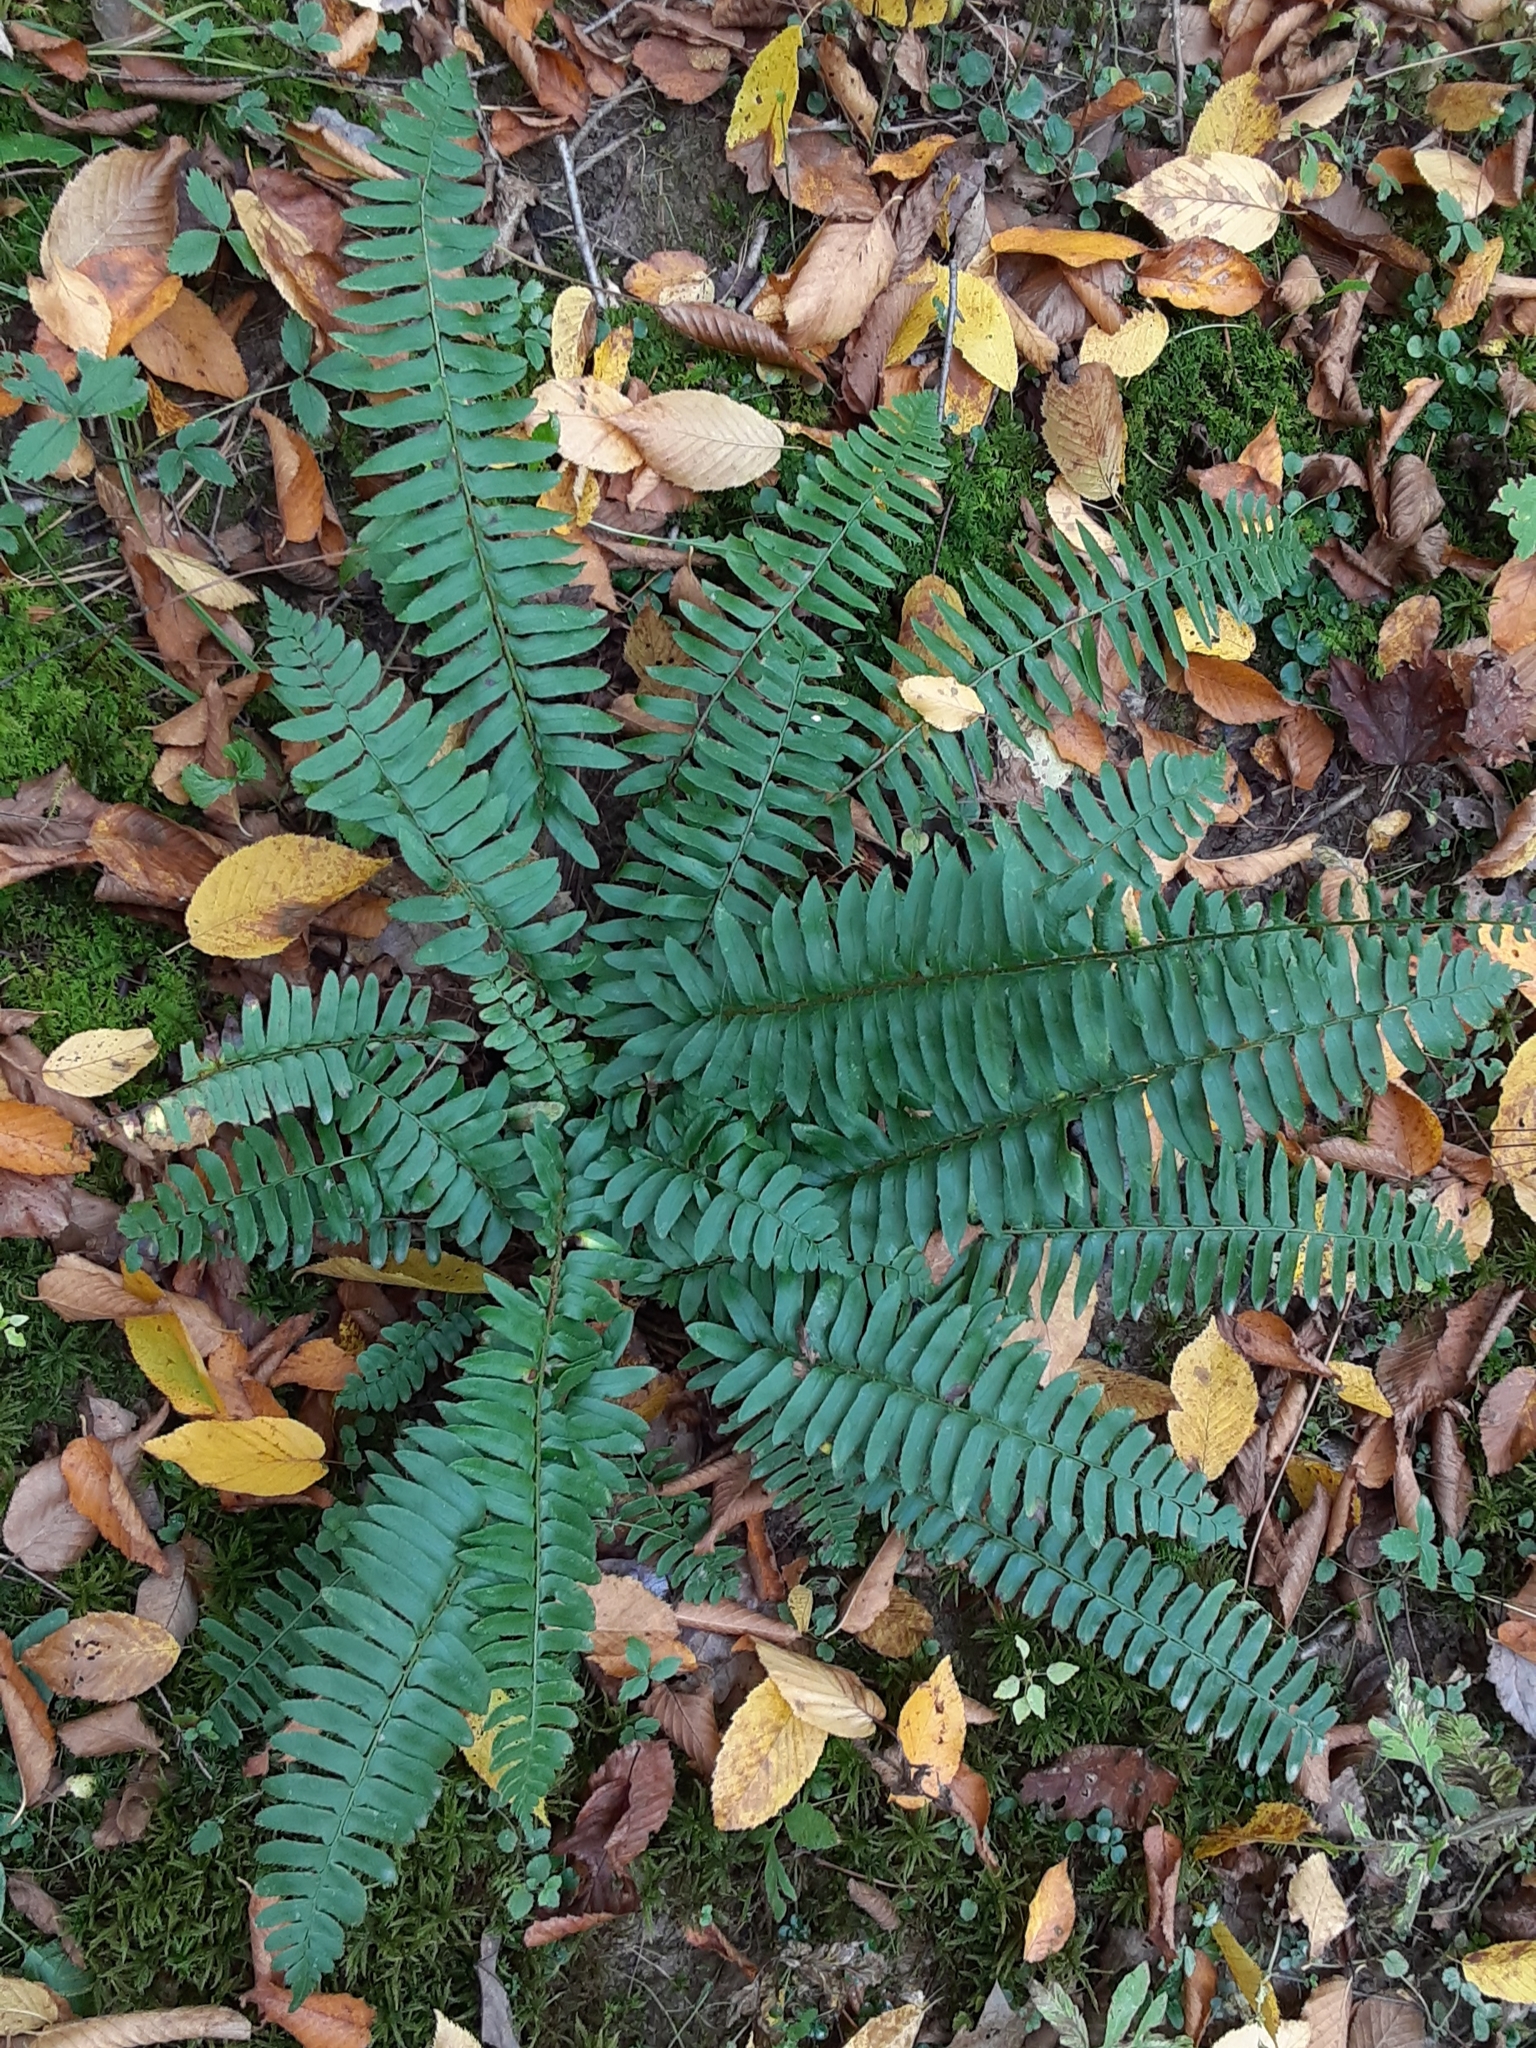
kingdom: Plantae
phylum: Tracheophyta
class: Polypodiopsida
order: Polypodiales
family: Dryopteridaceae
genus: Polystichum
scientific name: Polystichum acrostichoides
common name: Christmas fern
